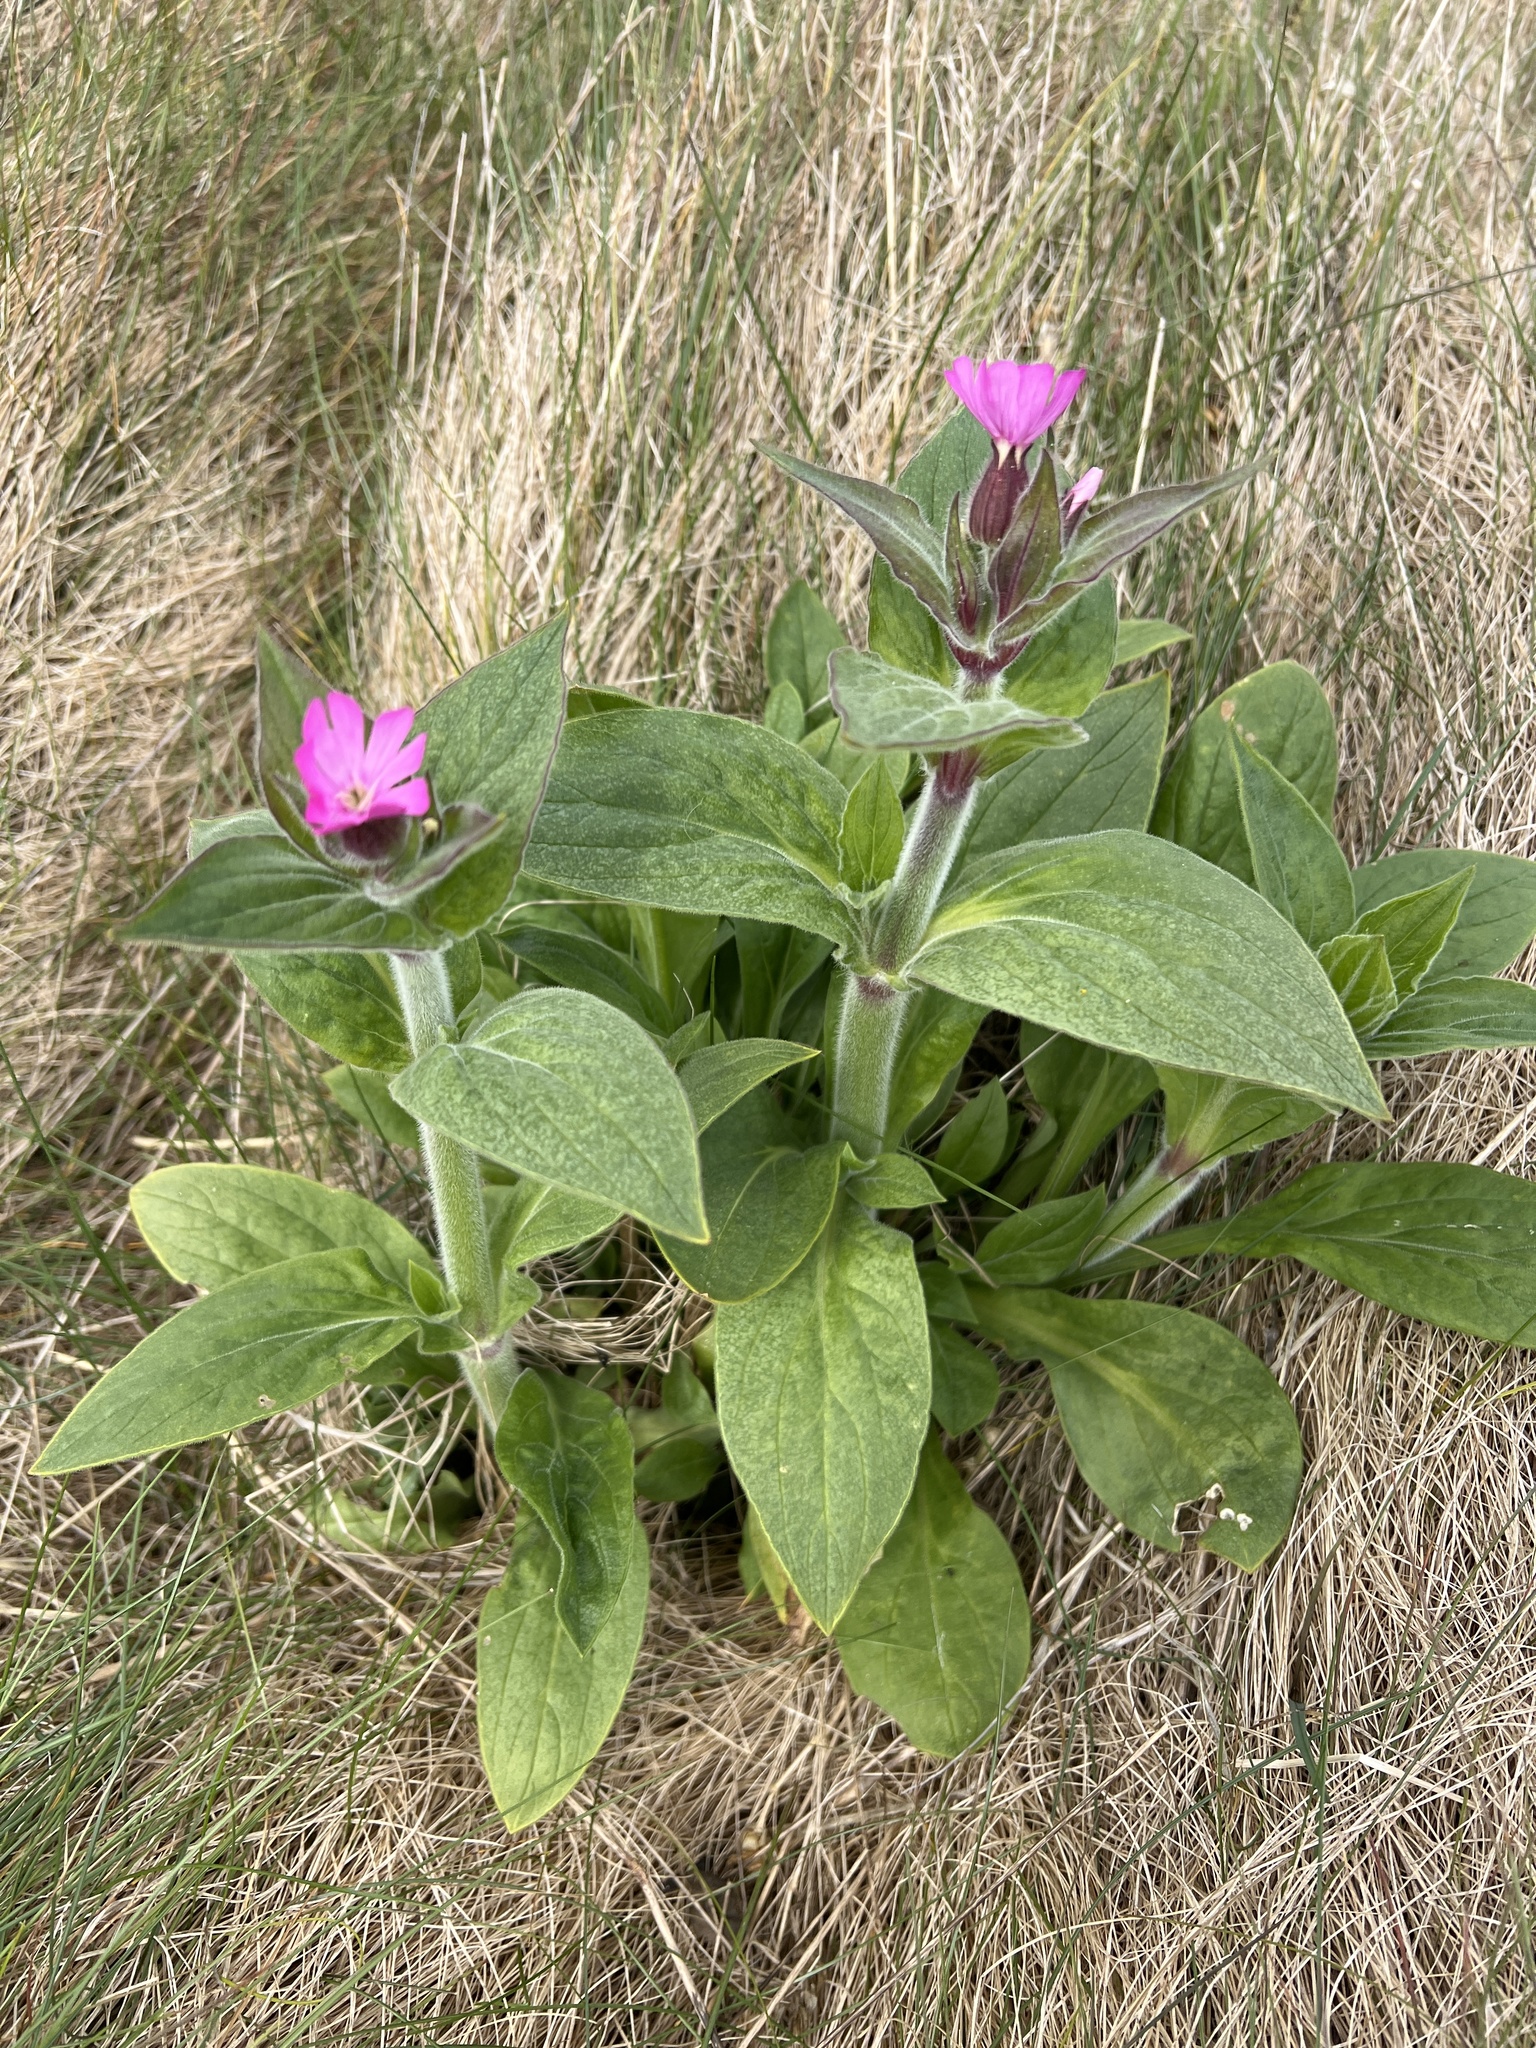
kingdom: Plantae
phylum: Tracheophyta
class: Magnoliopsida
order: Caryophyllales
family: Caryophyllaceae
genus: Silene
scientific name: Silene dioica
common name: Red campion
